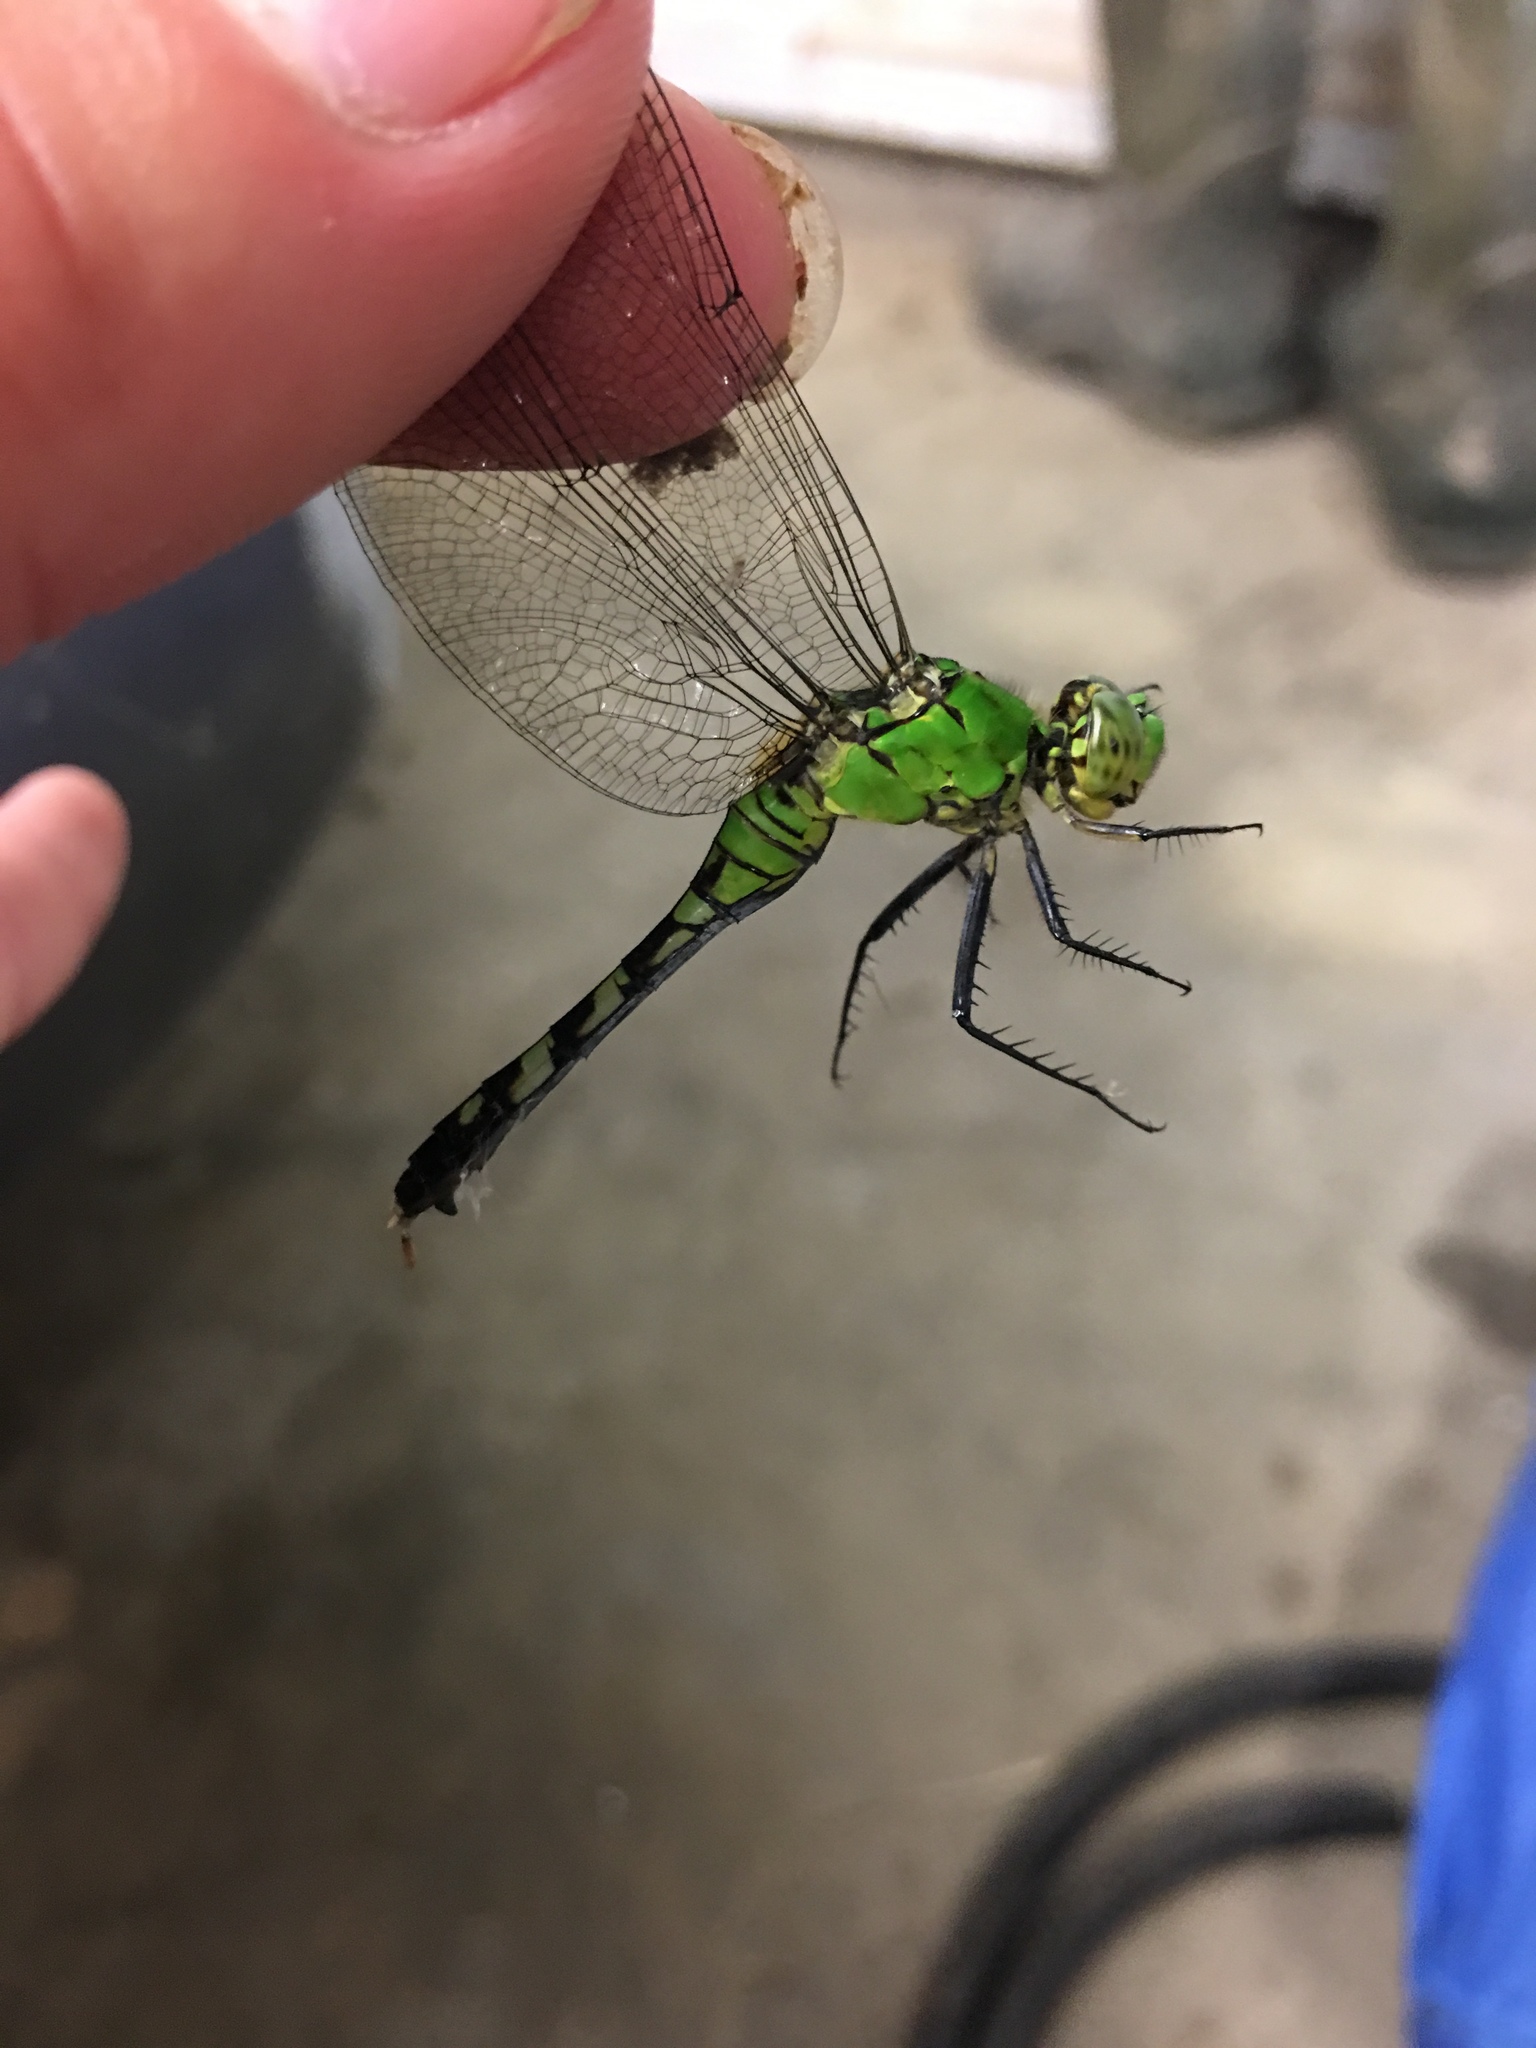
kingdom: Animalia
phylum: Arthropoda
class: Insecta
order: Odonata
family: Libellulidae
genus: Erythemis
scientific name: Erythemis simplicicollis
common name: Eastern pondhawk
